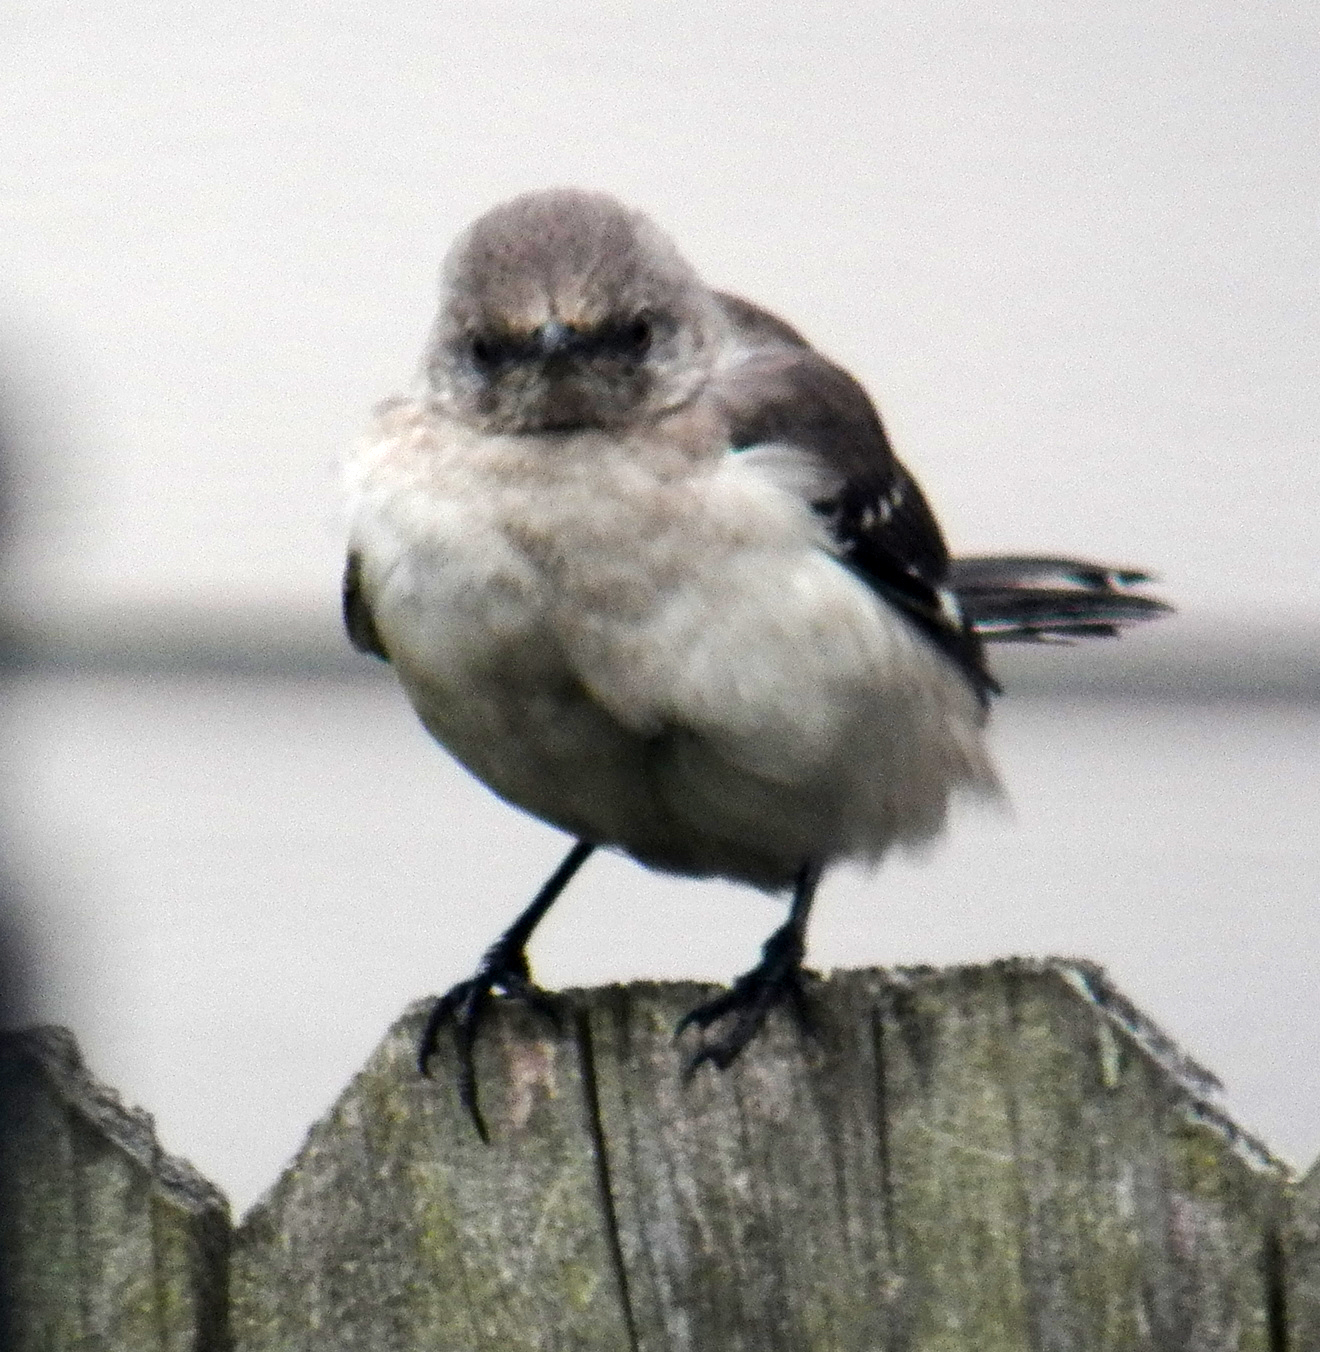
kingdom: Animalia
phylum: Chordata
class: Aves
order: Passeriformes
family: Mimidae
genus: Mimus
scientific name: Mimus polyglottos
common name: Northern mockingbird
